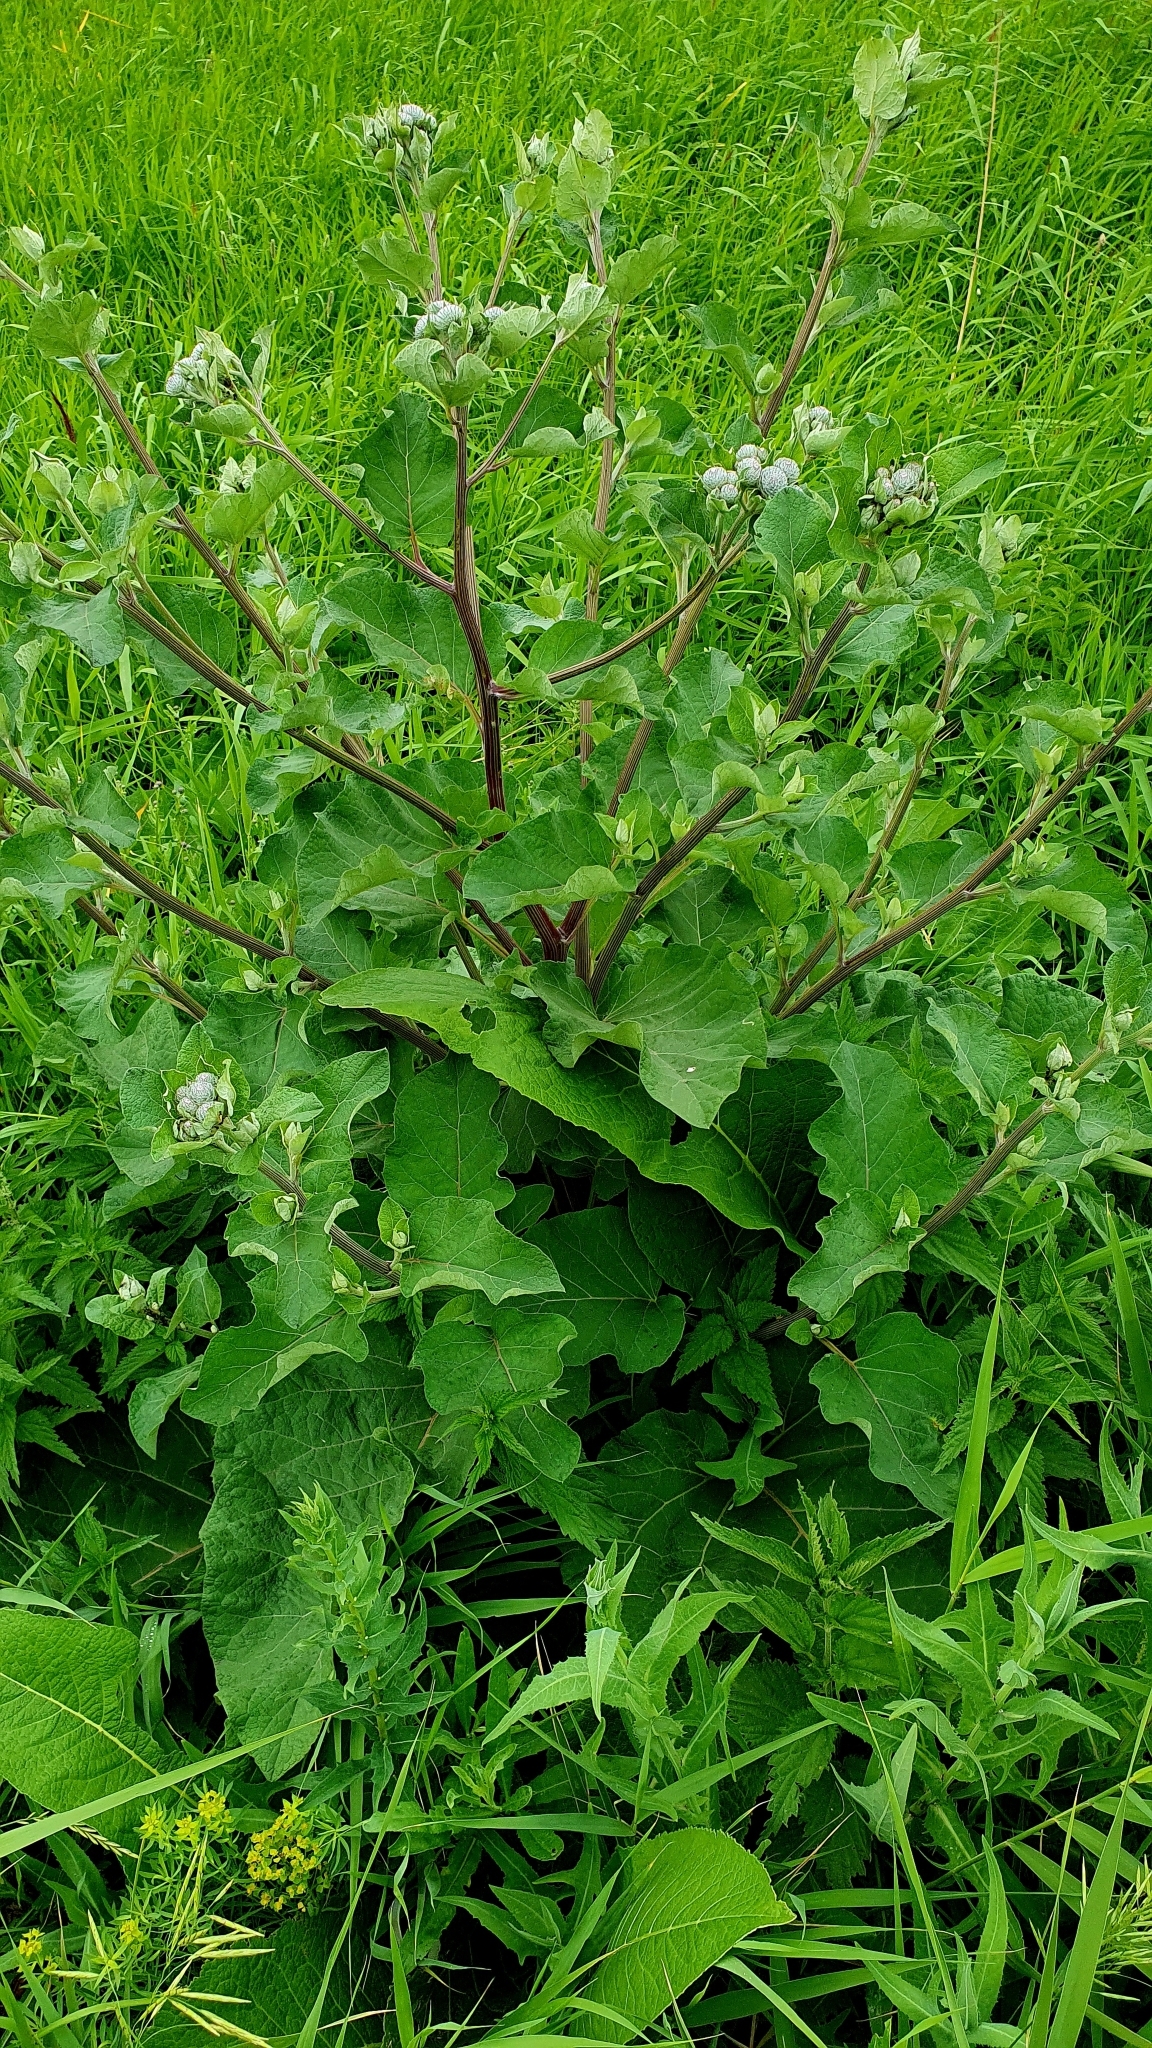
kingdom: Plantae
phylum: Tracheophyta
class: Magnoliopsida
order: Asterales
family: Asteraceae
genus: Arctium
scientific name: Arctium tomentosum
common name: Woolly burdock
